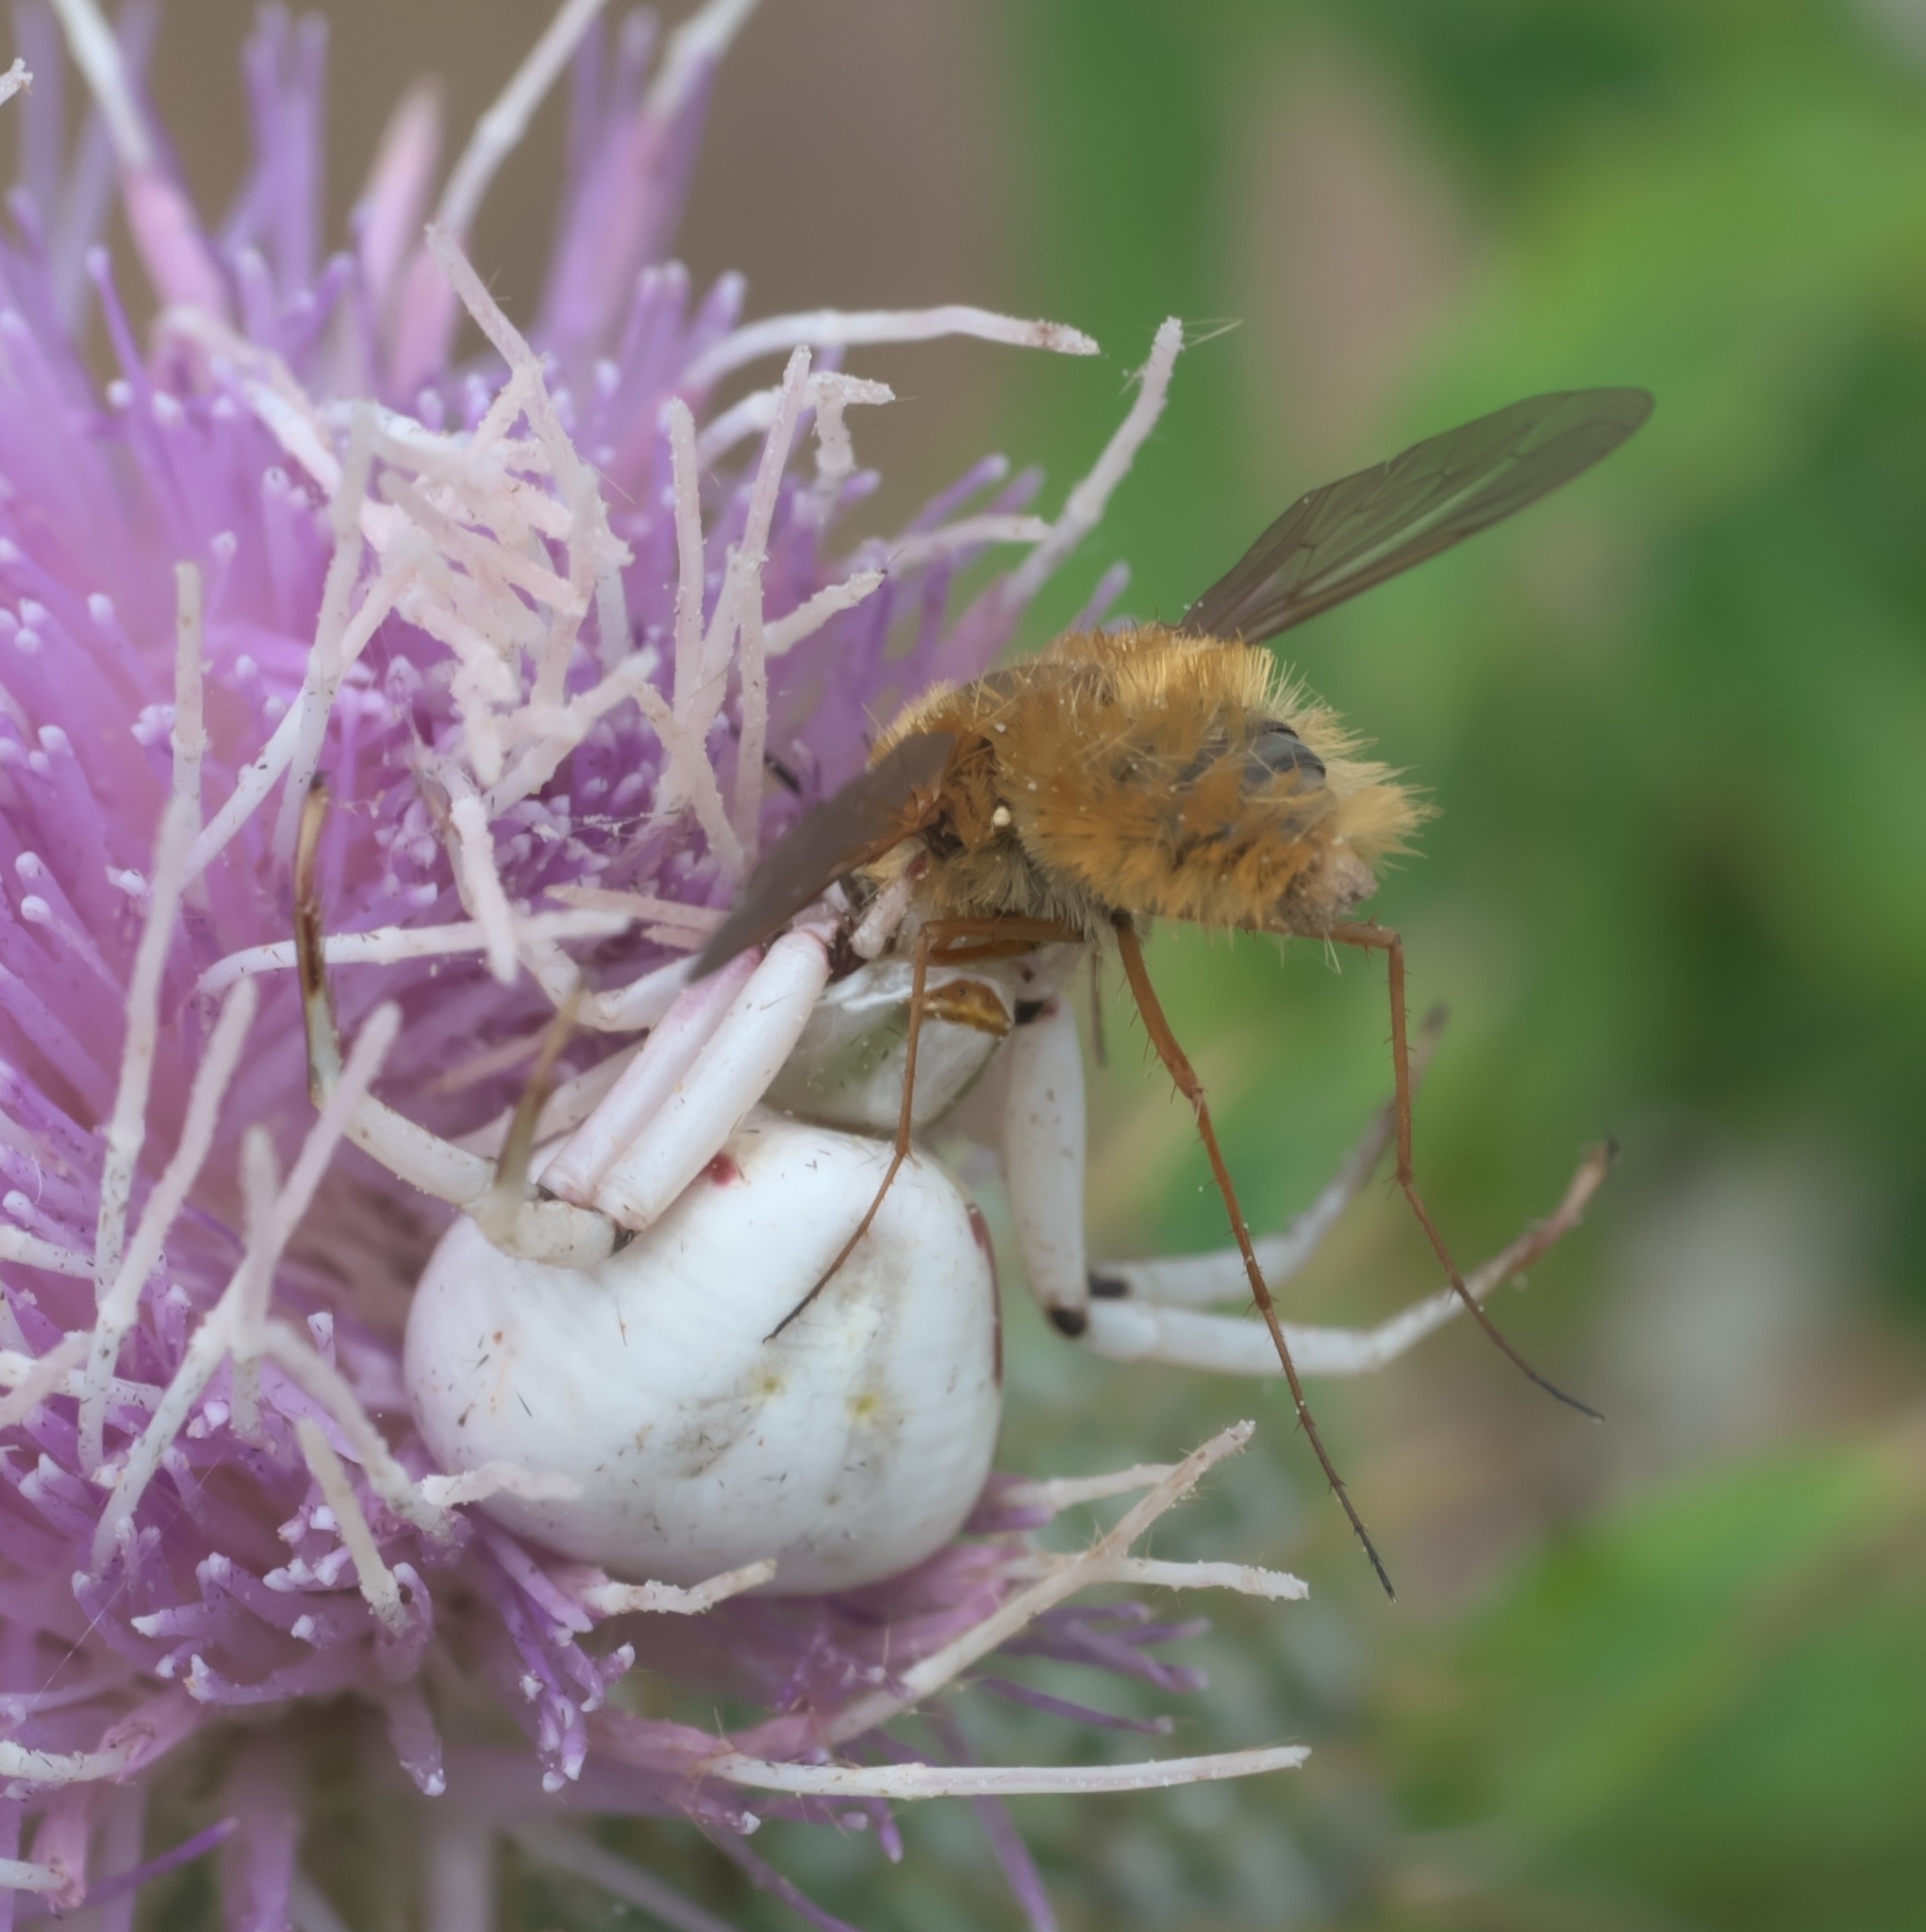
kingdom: Animalia
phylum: Arthropoda
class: Arachnida
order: Araneae
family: Thomisidae
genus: Misumenoides
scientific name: Misumenoides formosipes
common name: White-banded crab spider
